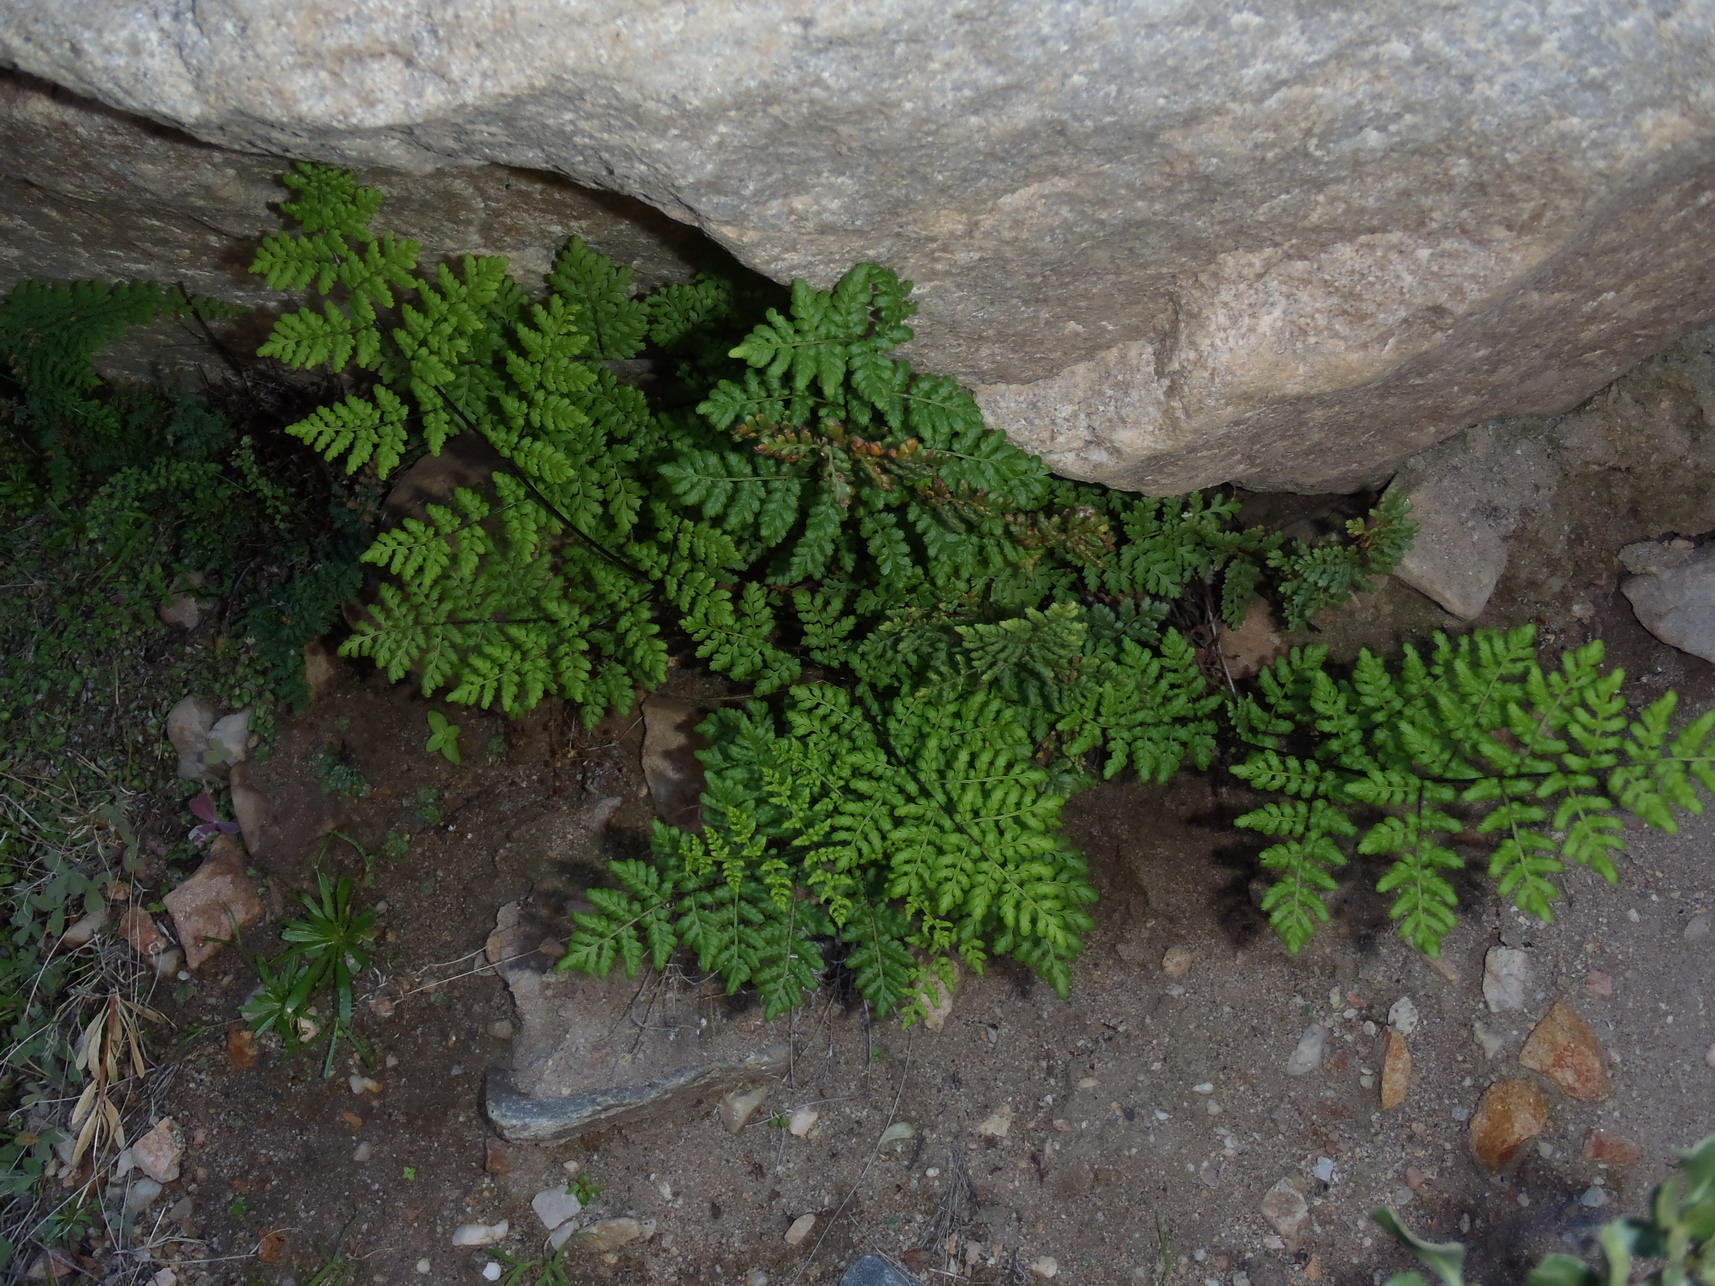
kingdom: Plantae
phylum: Tracheophyta
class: Polypodiopsida
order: Polypodiales
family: Pteridaceae
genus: Cheilanthes
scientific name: Cheilanthes multifida
